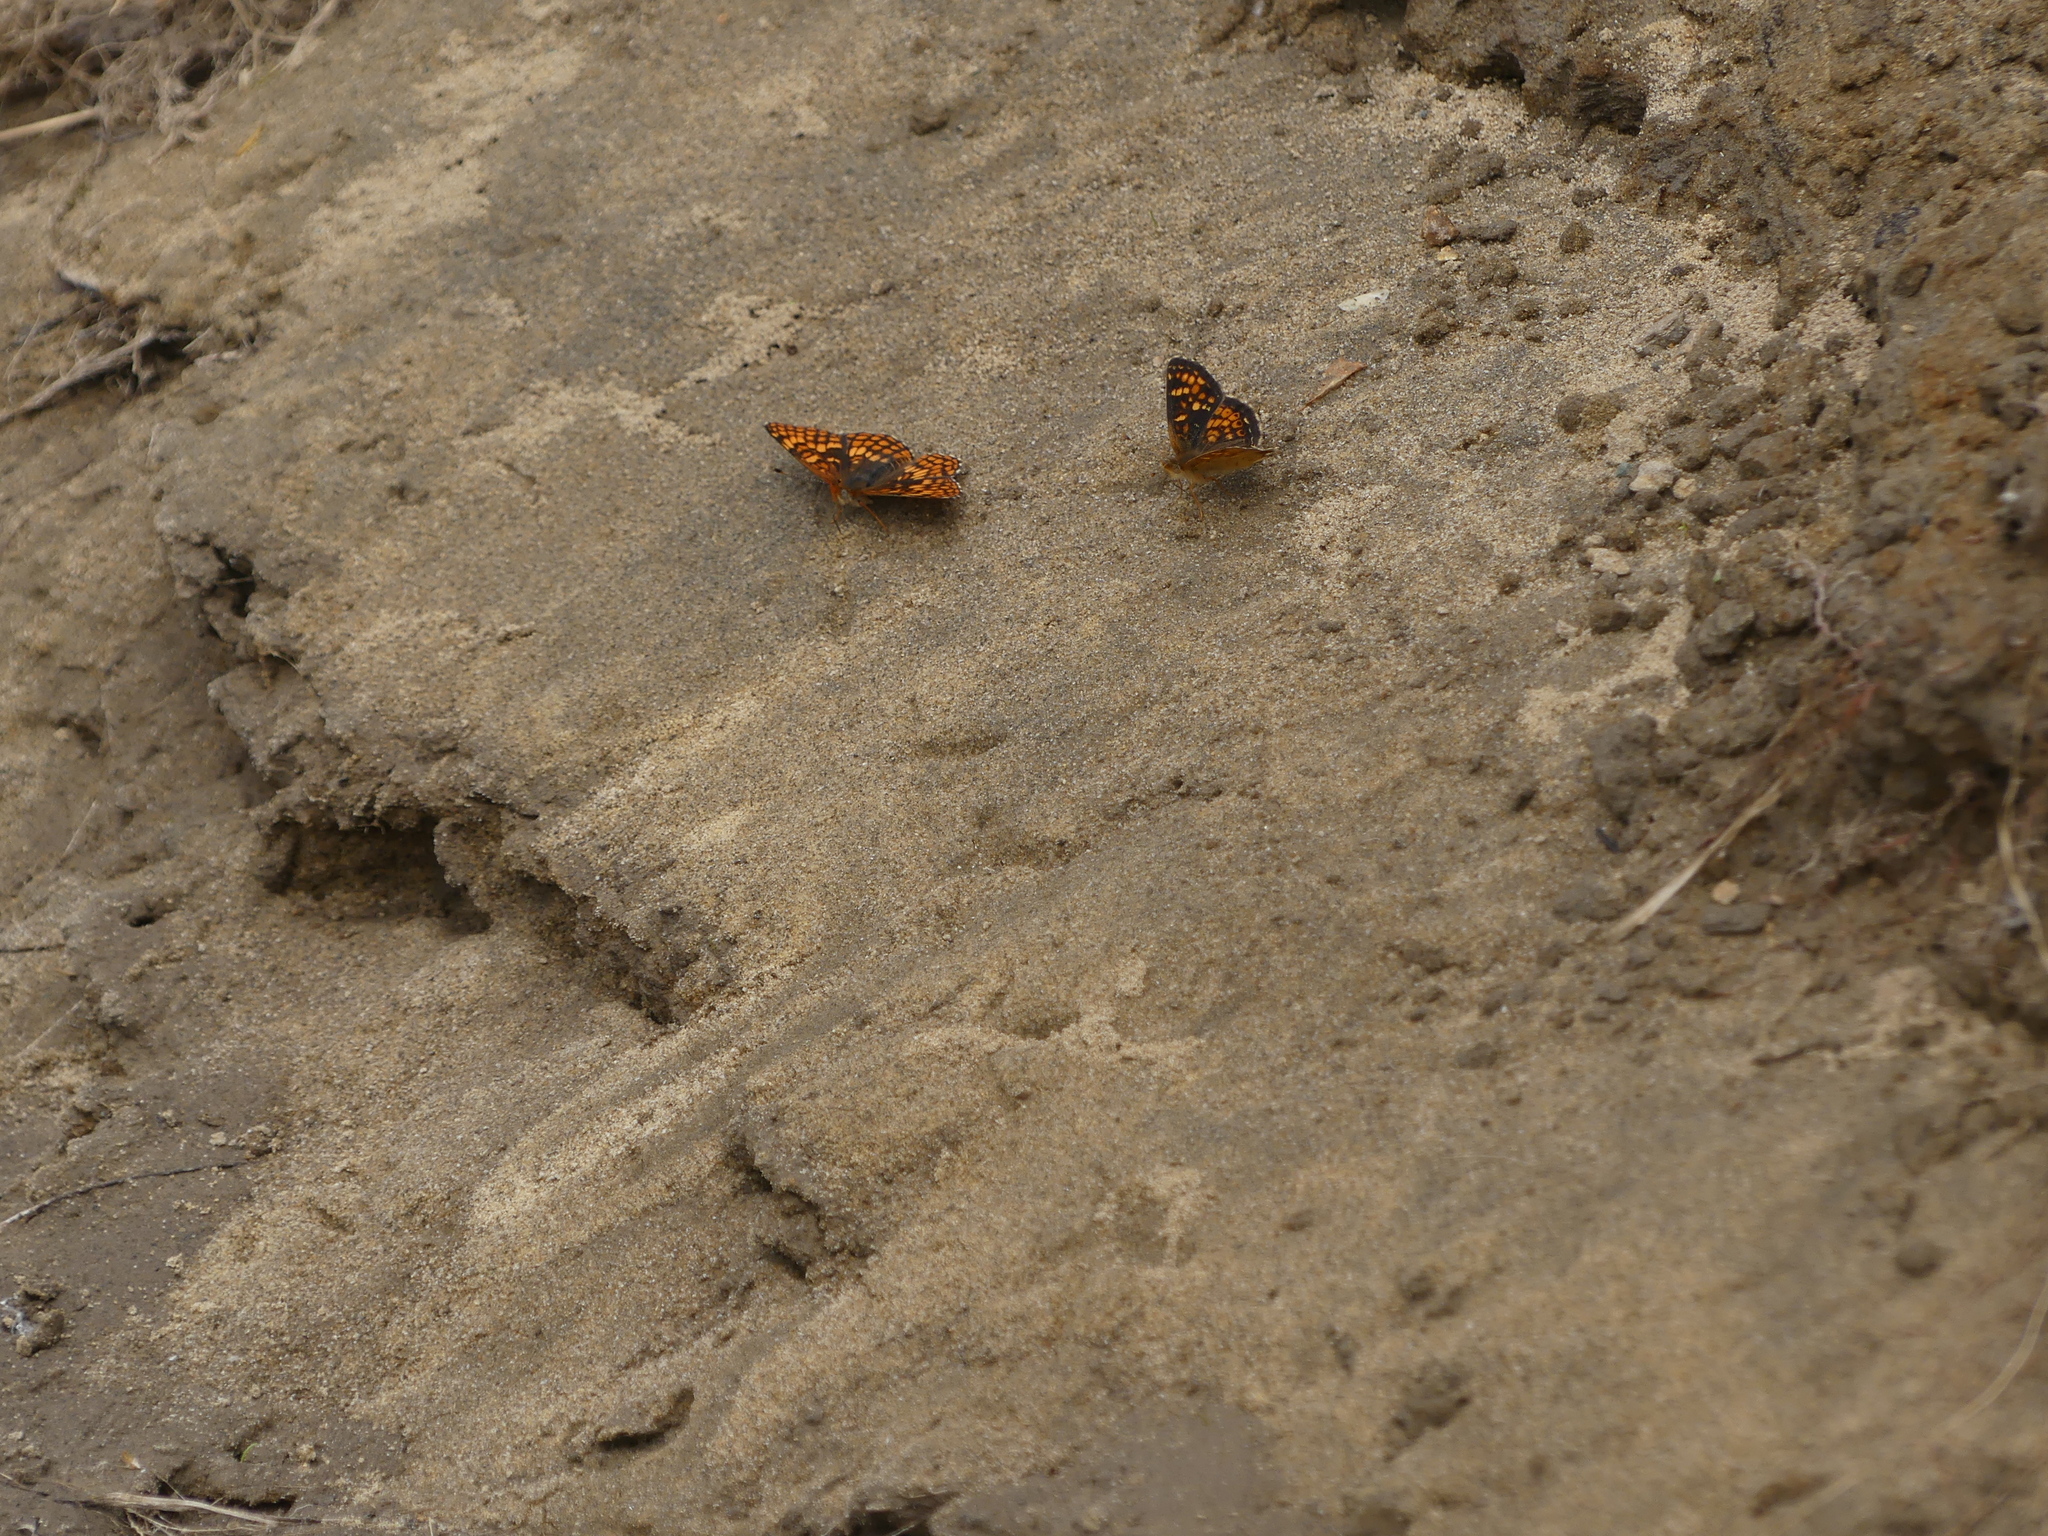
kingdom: Animalia
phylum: Arthropoda
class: Insecta
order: Lepidoptera
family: Nymphalidae
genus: Phyciodes
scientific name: Phyciodes tharos
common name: Pearl crescent
